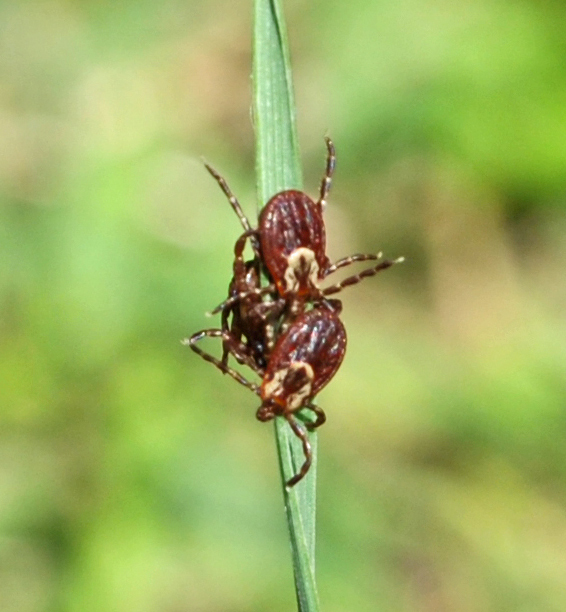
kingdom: Animalia
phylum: Arthropoda
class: Arachnida
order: Ixodida
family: Ixodidae
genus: Dermacentor
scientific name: Dermacentor variabilis
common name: American dog tick
